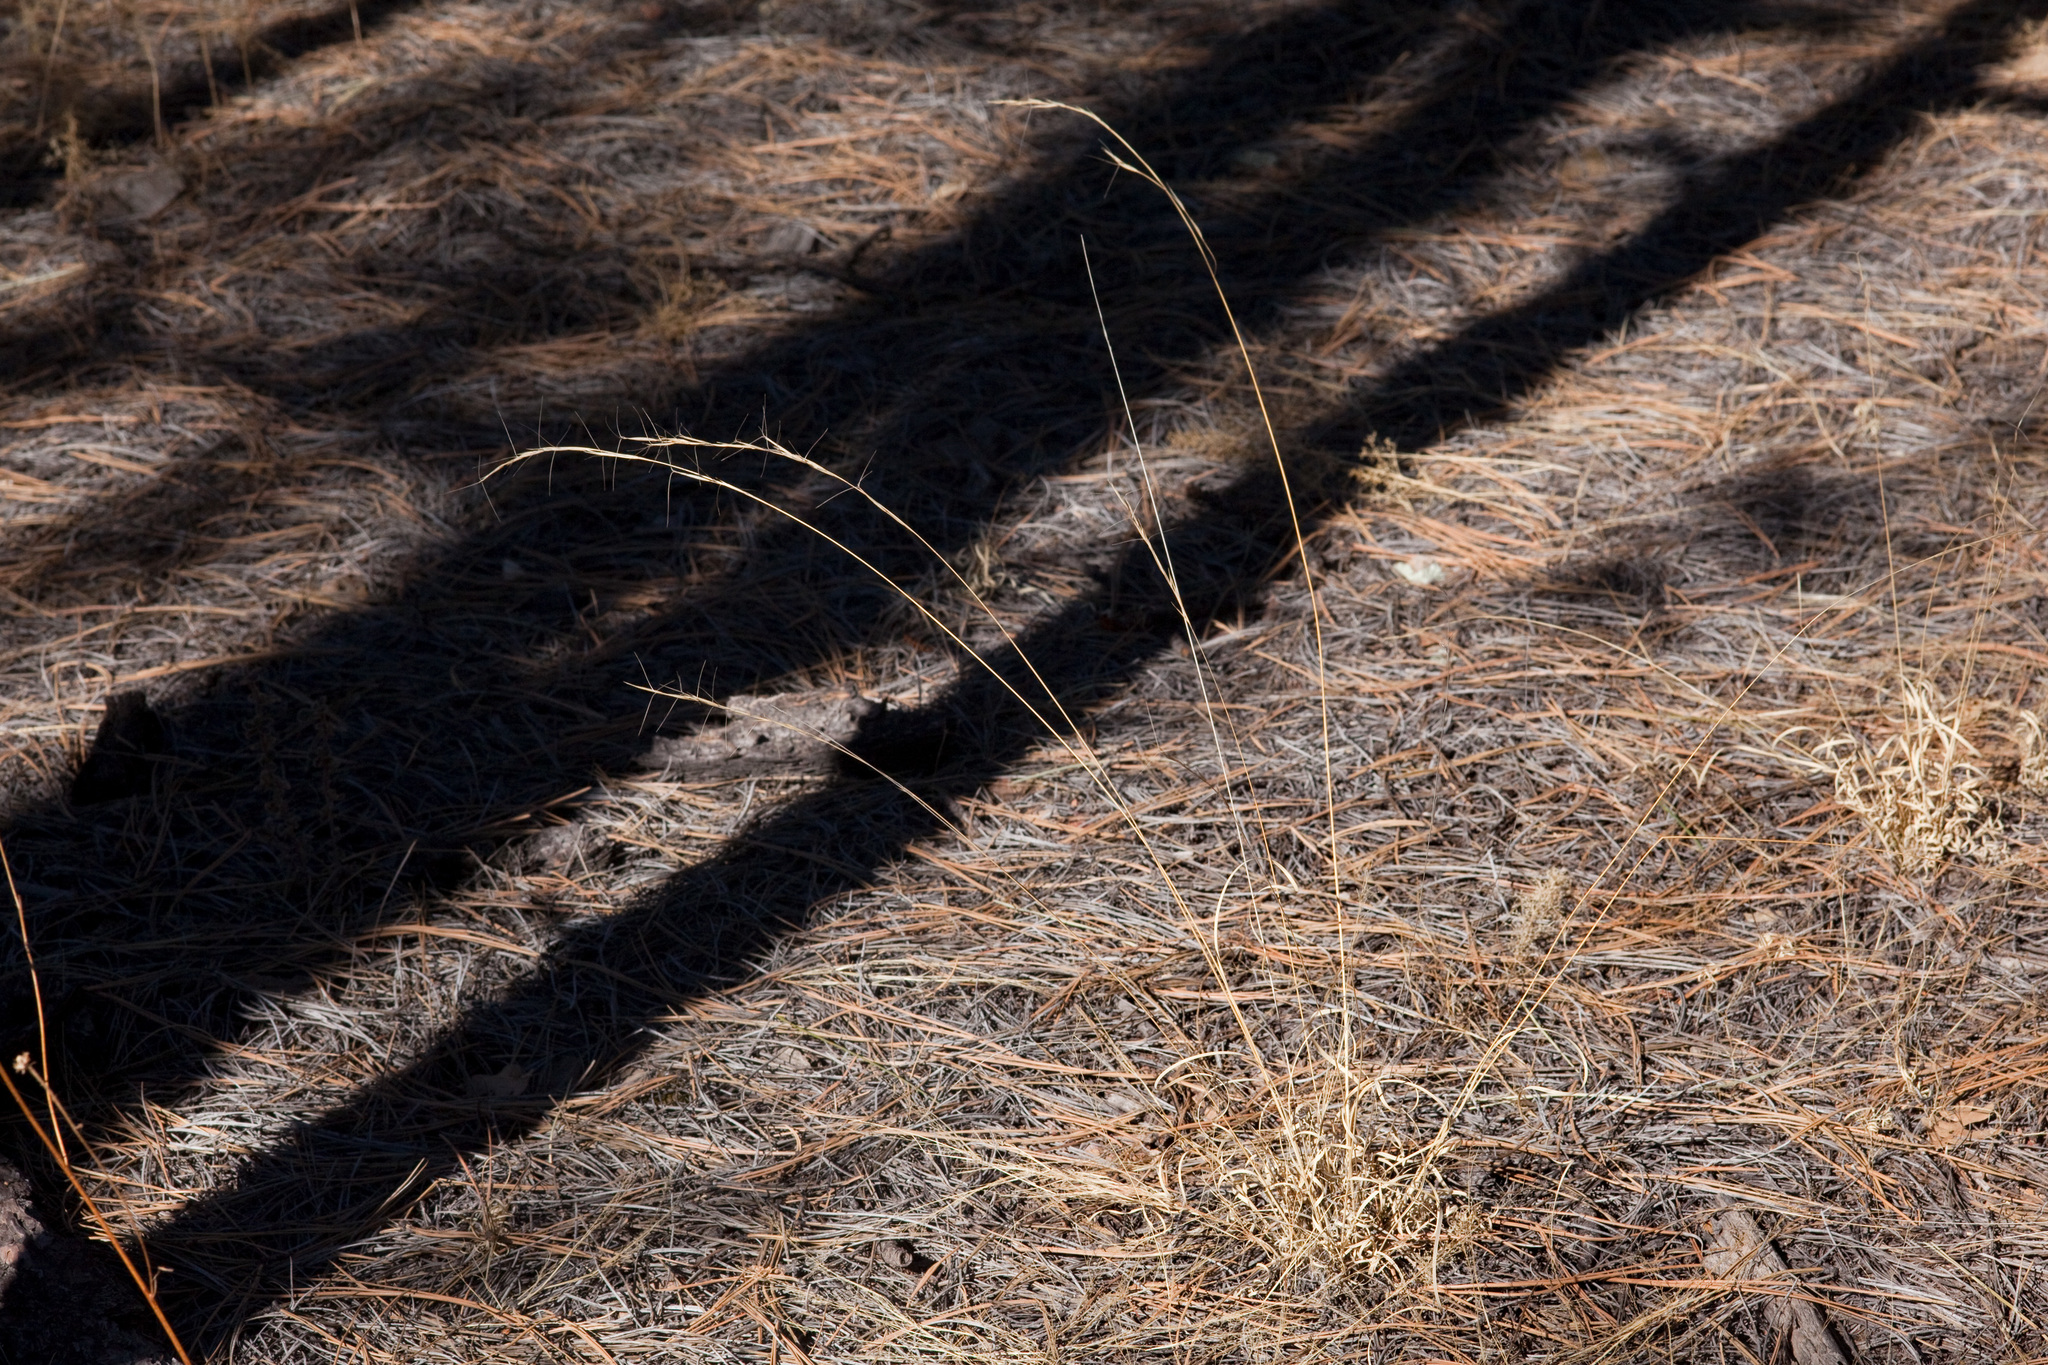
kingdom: Plantae
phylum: Tracheophyta
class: Liliopsida
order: Poales
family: Poaceae
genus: Aristida
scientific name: Aristida arizonica
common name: Arizona threeawn
